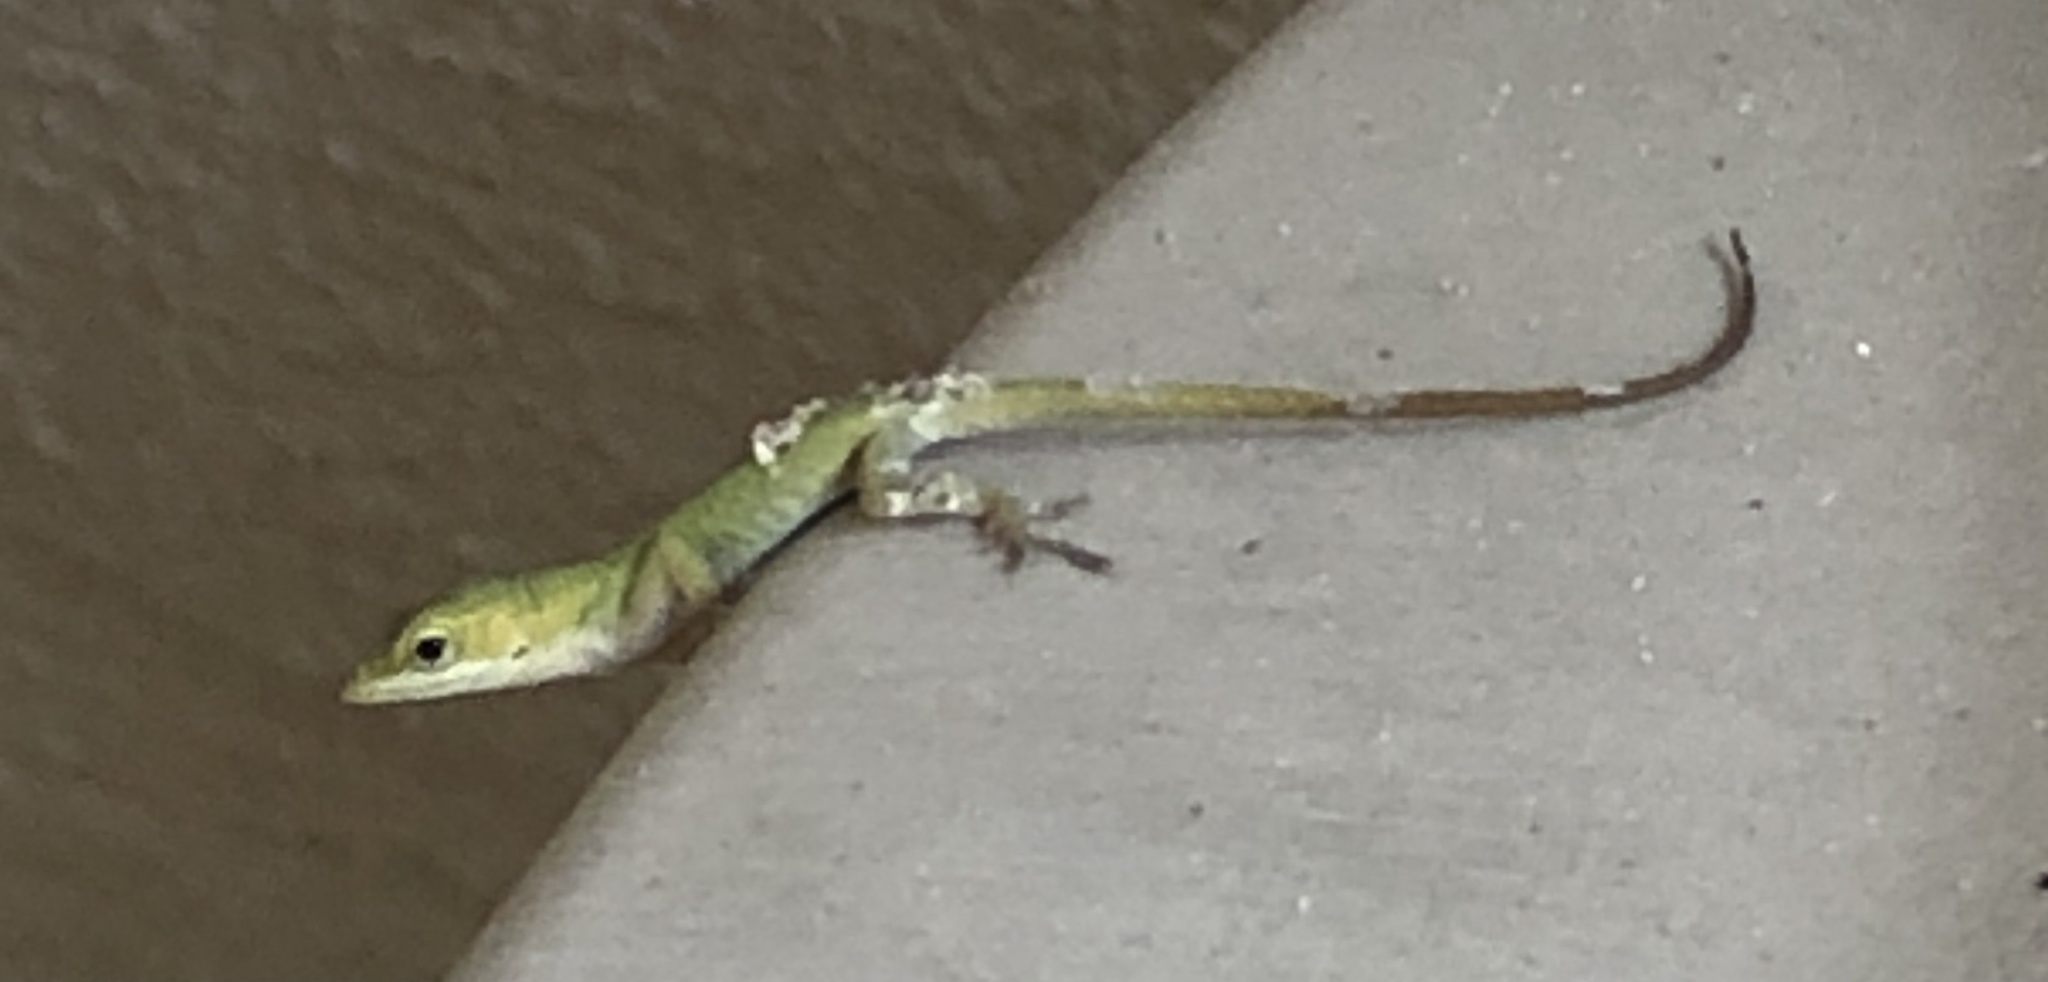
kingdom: Animalia
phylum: Chordata
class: Squamata
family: Dactyloidae
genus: Anolis
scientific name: Anolis carolinensis
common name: Green anole
